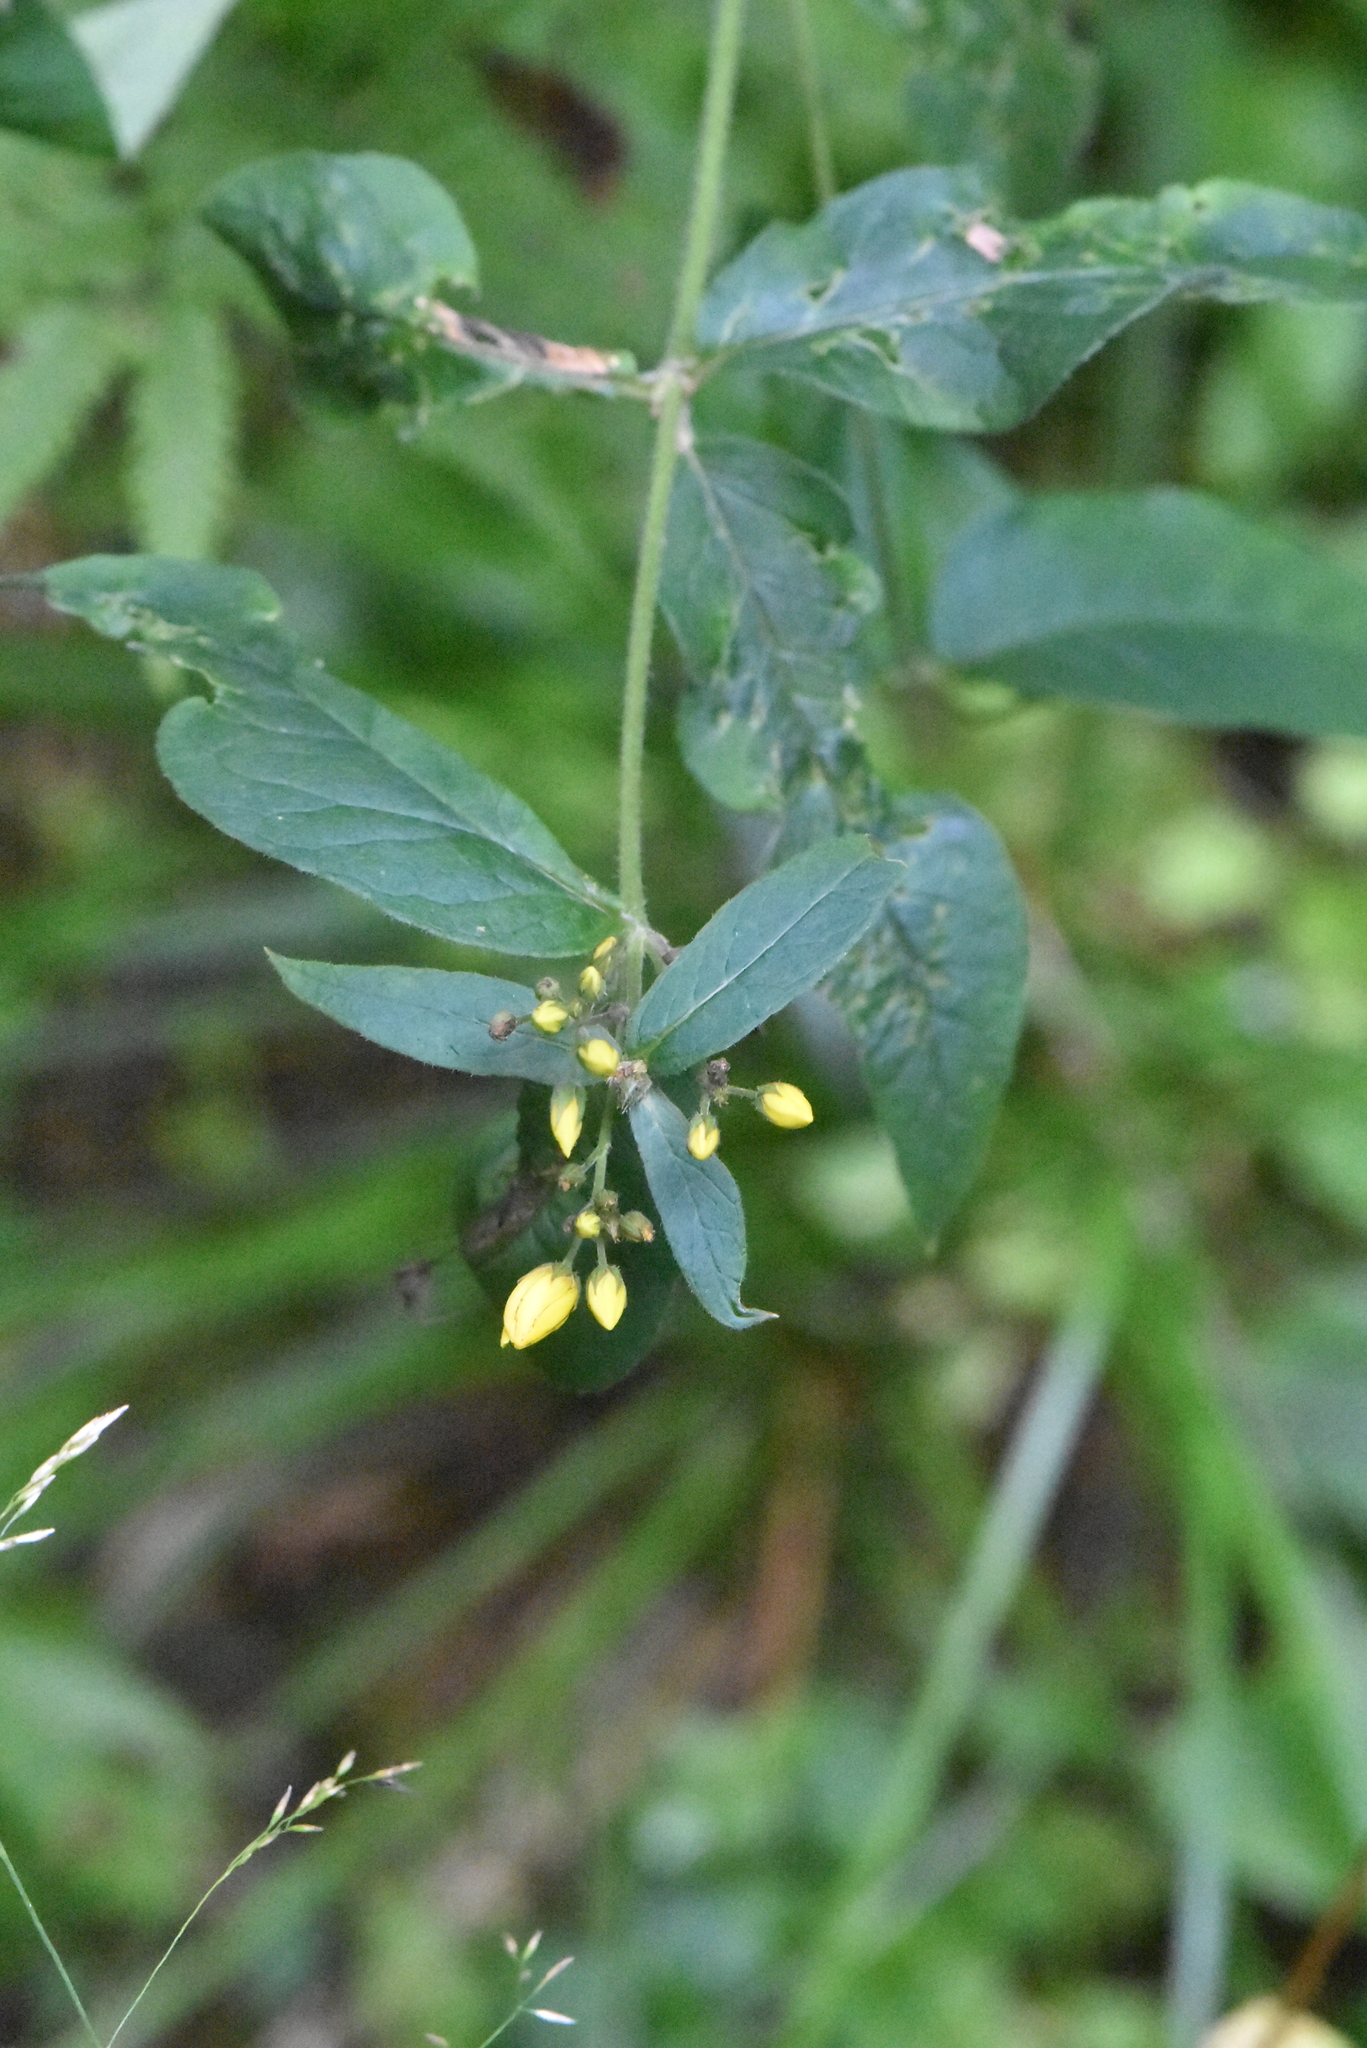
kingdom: Plantae
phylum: Tracheophyta
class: Magnoliopsida
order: Ericales
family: Primulaceae
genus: Lysimachia
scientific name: Lysimachia vulgaris
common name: Yellow loosestrife
